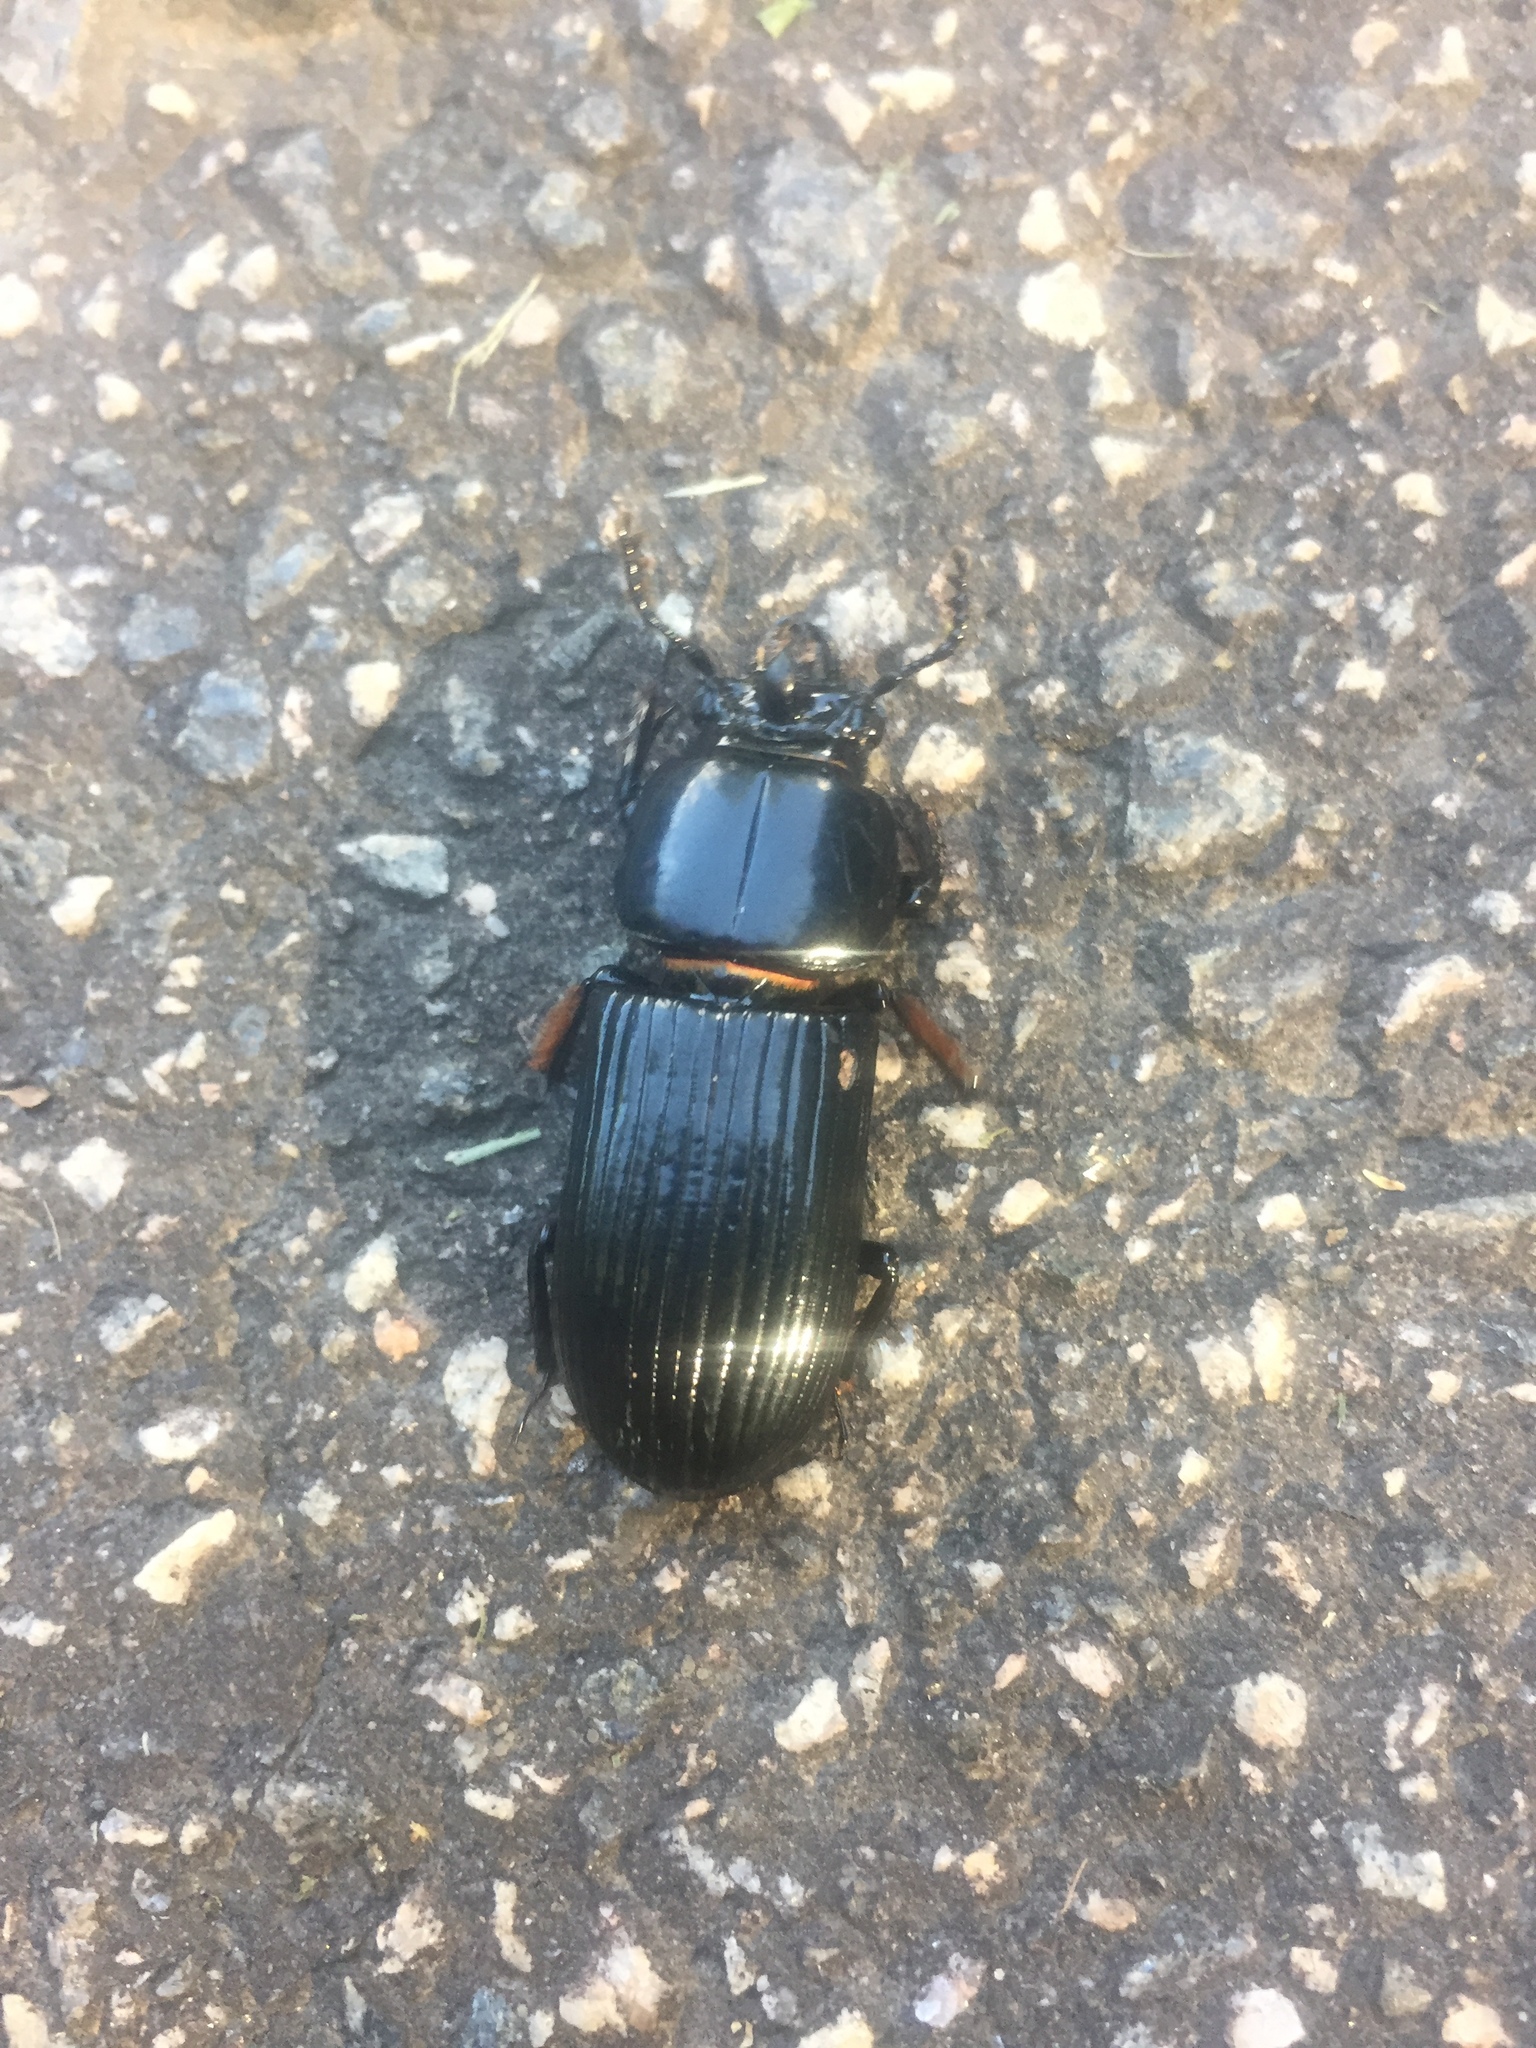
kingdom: Animalia
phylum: Arthropoda
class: Insecta
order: Coleoptera
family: Passalidae
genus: Odontotaenius
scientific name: Odontotaenius disjunctus
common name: Patent leather beetle
